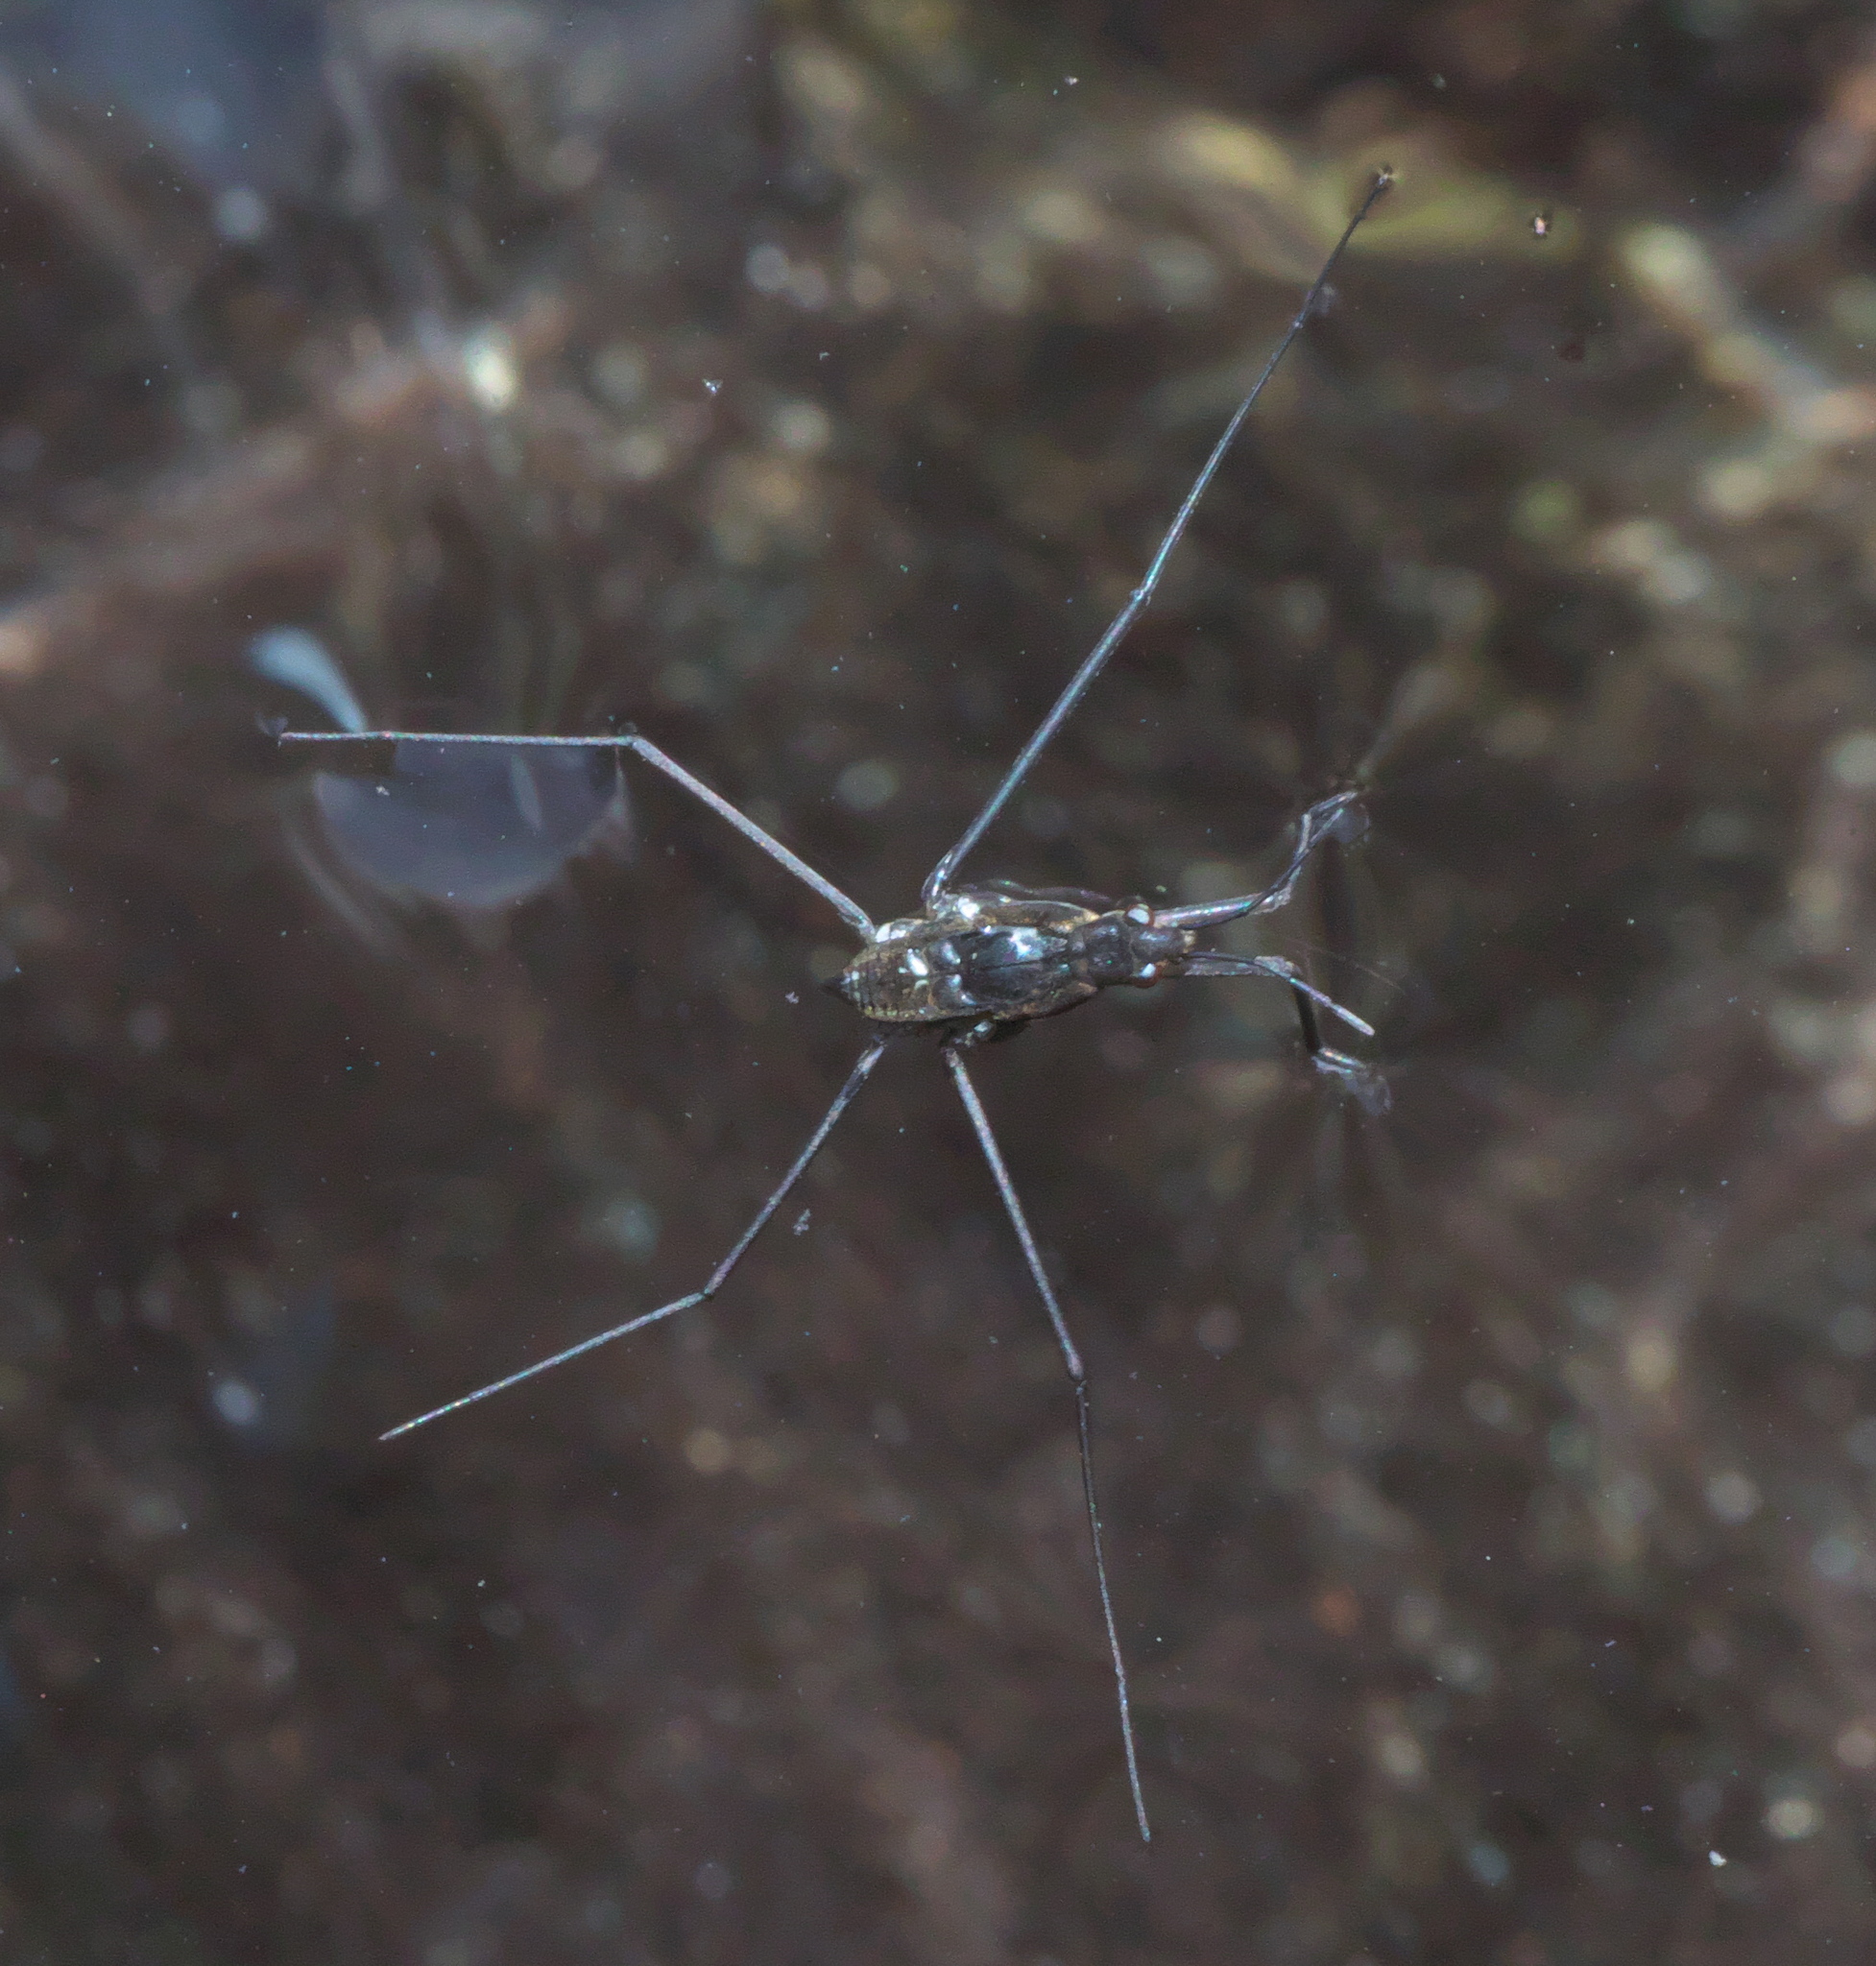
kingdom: Animalia
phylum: Arthropoda
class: Insecta
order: Hemiptera
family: Gerridae
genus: Aquarius
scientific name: Aquarius remigis
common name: Common water strider
